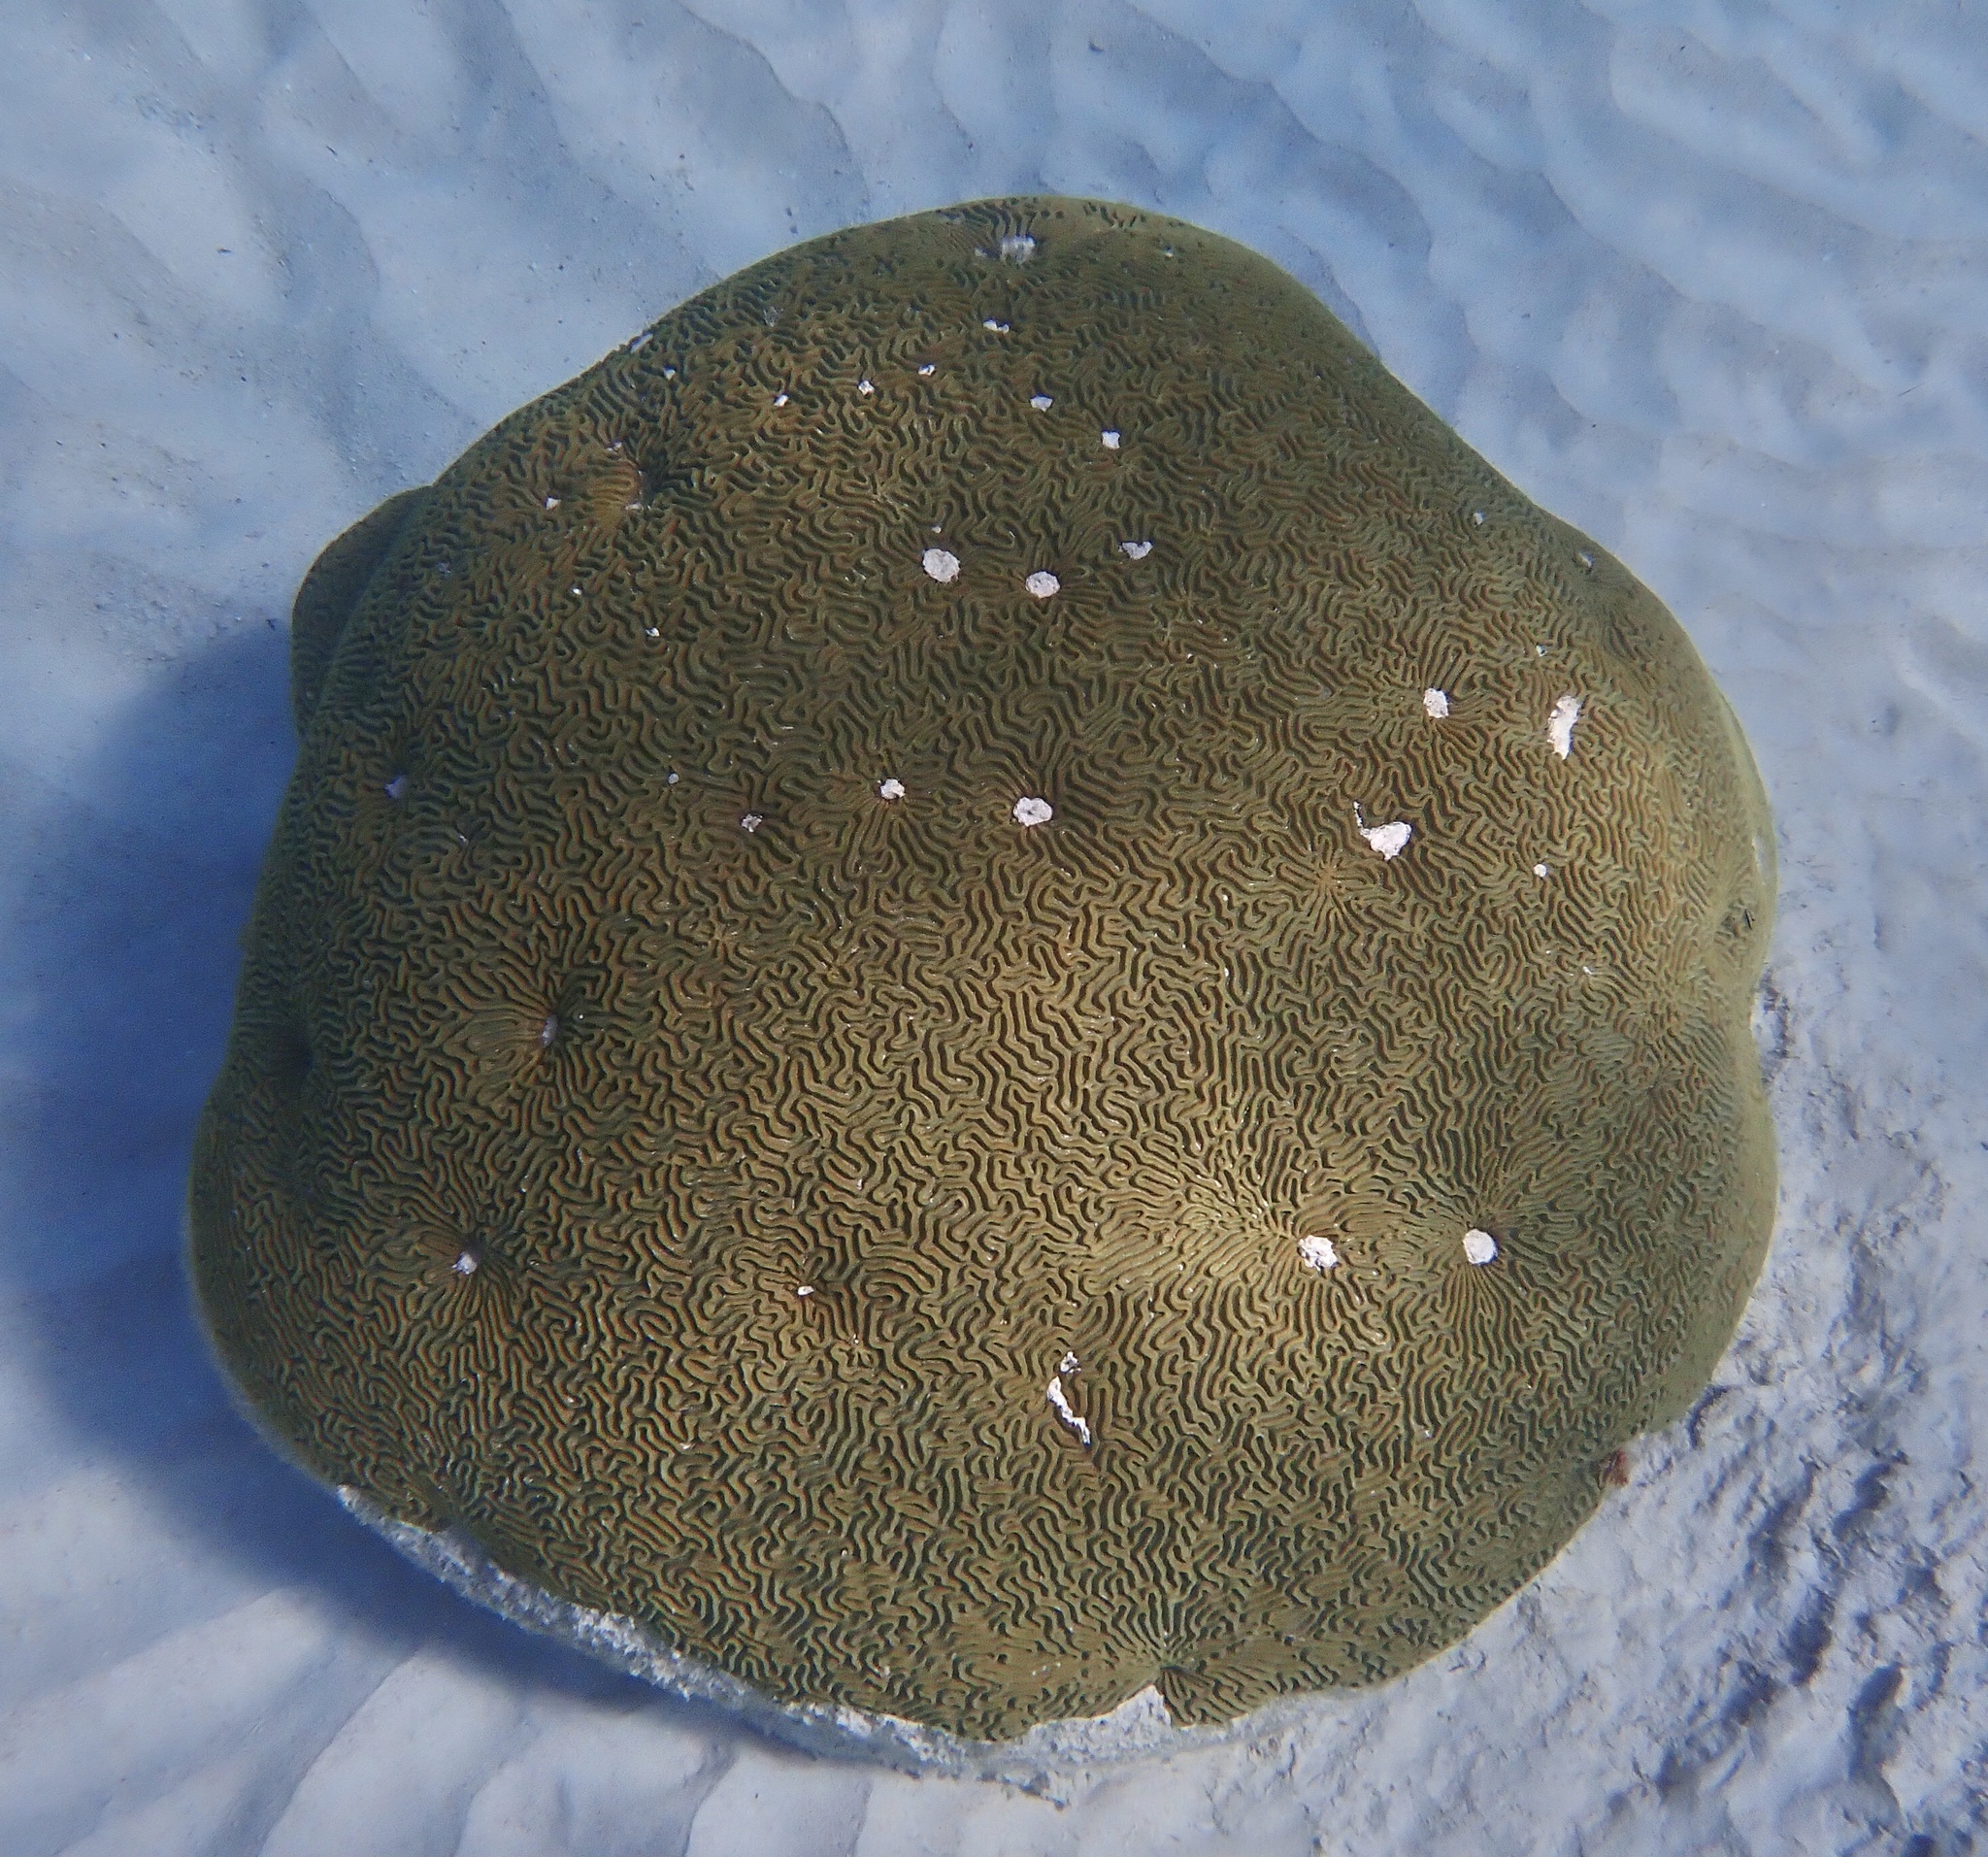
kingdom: Animalia
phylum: Cnidaria
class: Anthozoa
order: Scleractinia
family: Faviidae
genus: Colpophyllia
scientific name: Colpophyllia natans
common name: Boulder brain coral
